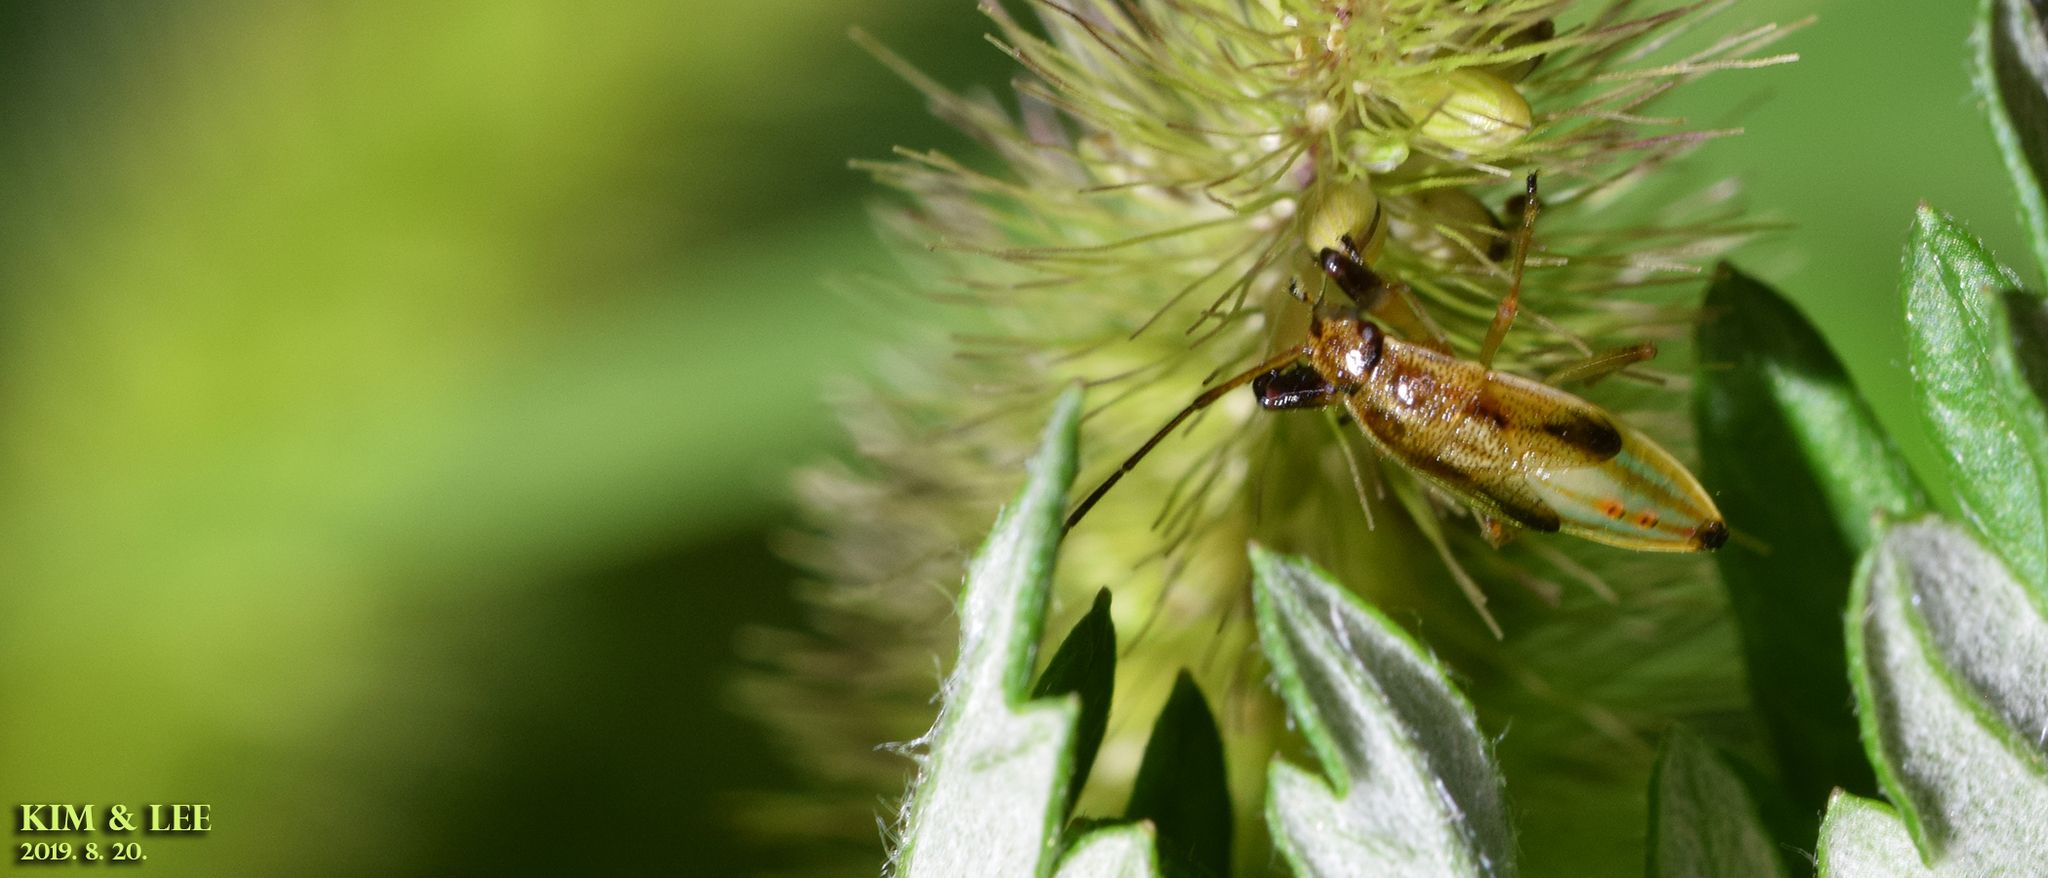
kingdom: Animalia
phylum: Arthropoda
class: Insecta
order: Hemiptera
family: Pachygronthidae
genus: Pachygrontha
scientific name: Pachygrontha antennata
